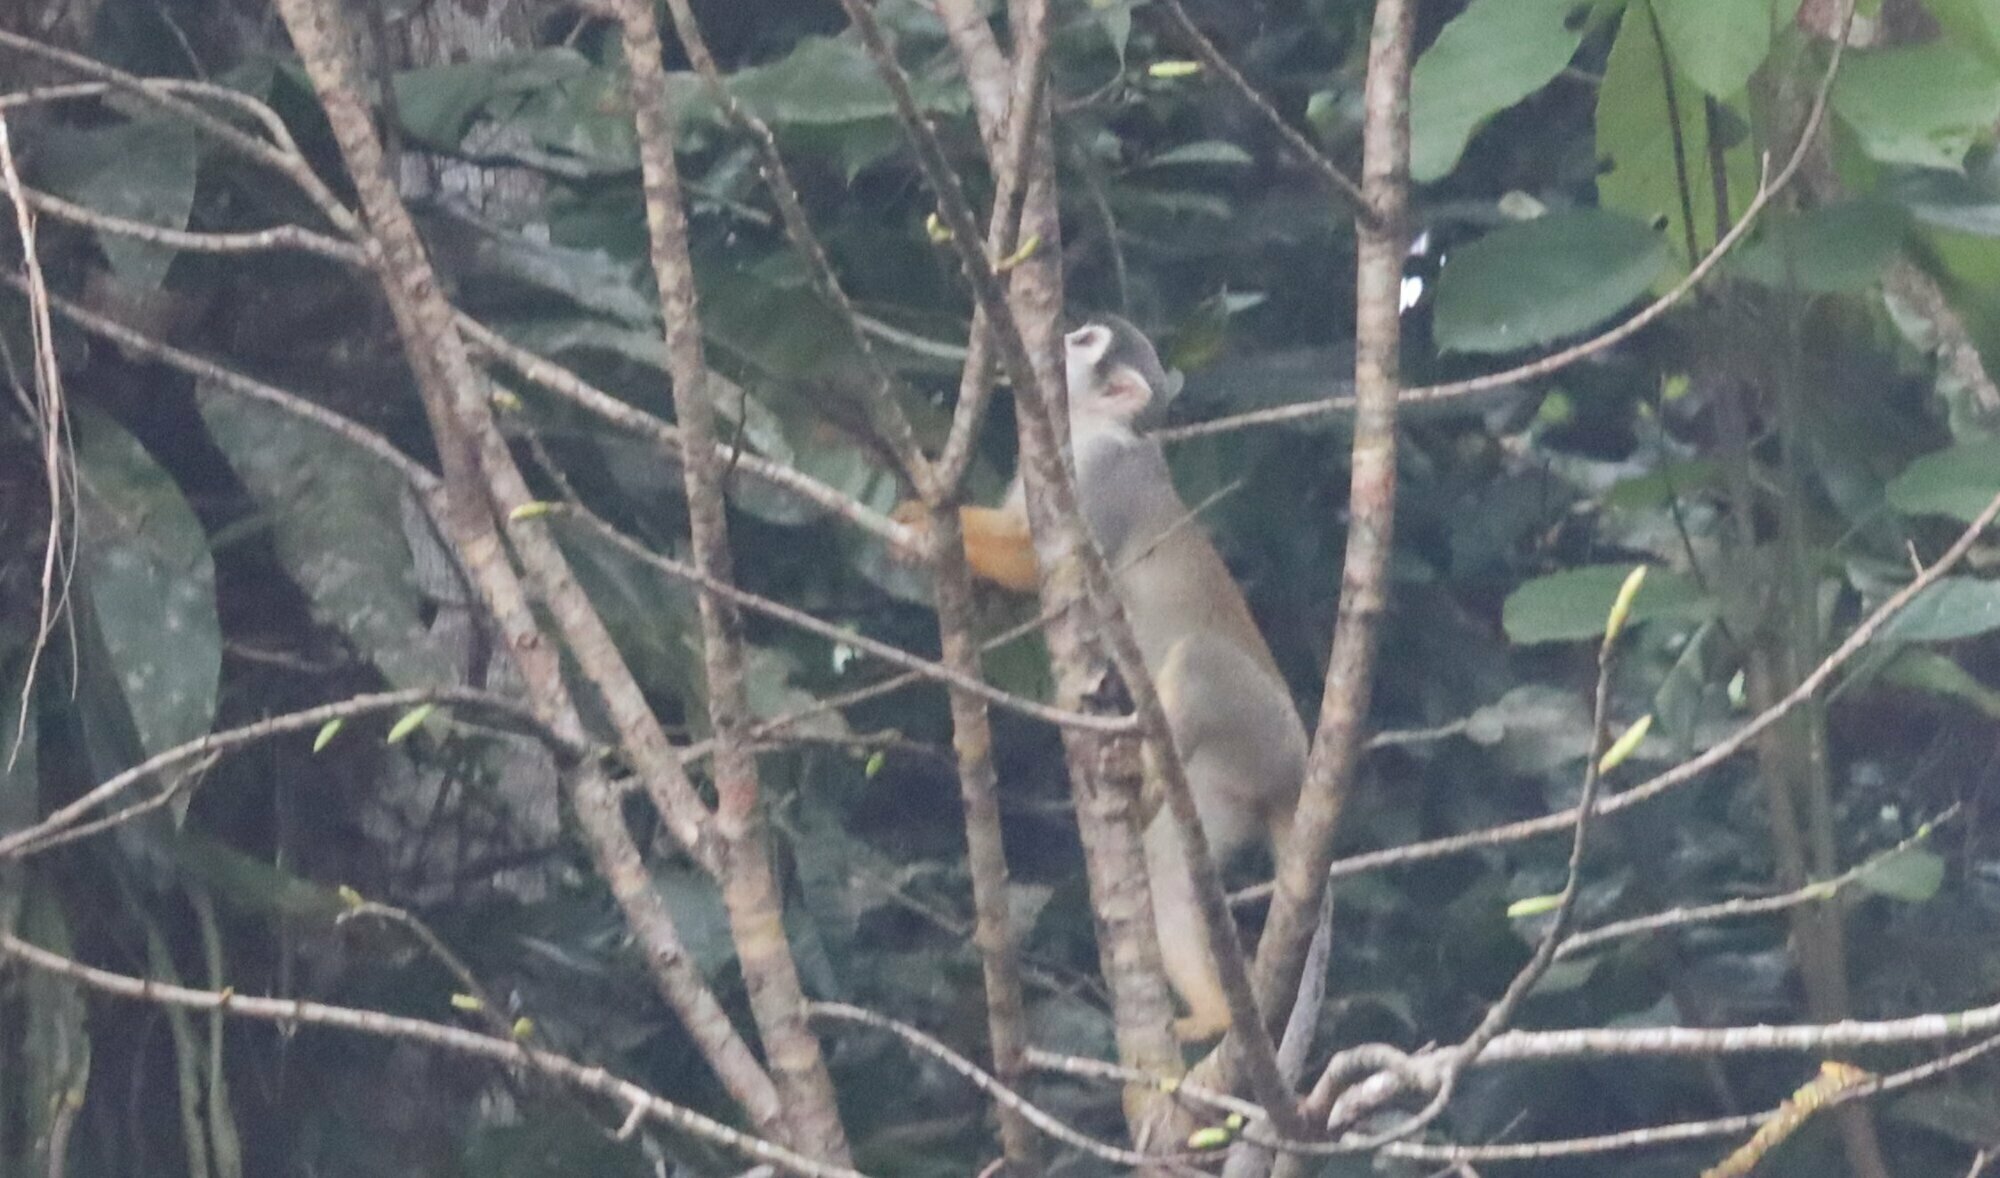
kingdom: Animalia
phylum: Chordata
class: Mammalia
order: Primates
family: Cebidae
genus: Saimiri
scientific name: Saimiri cassiquiarensis
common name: Humboldt’s squirrel monkey
